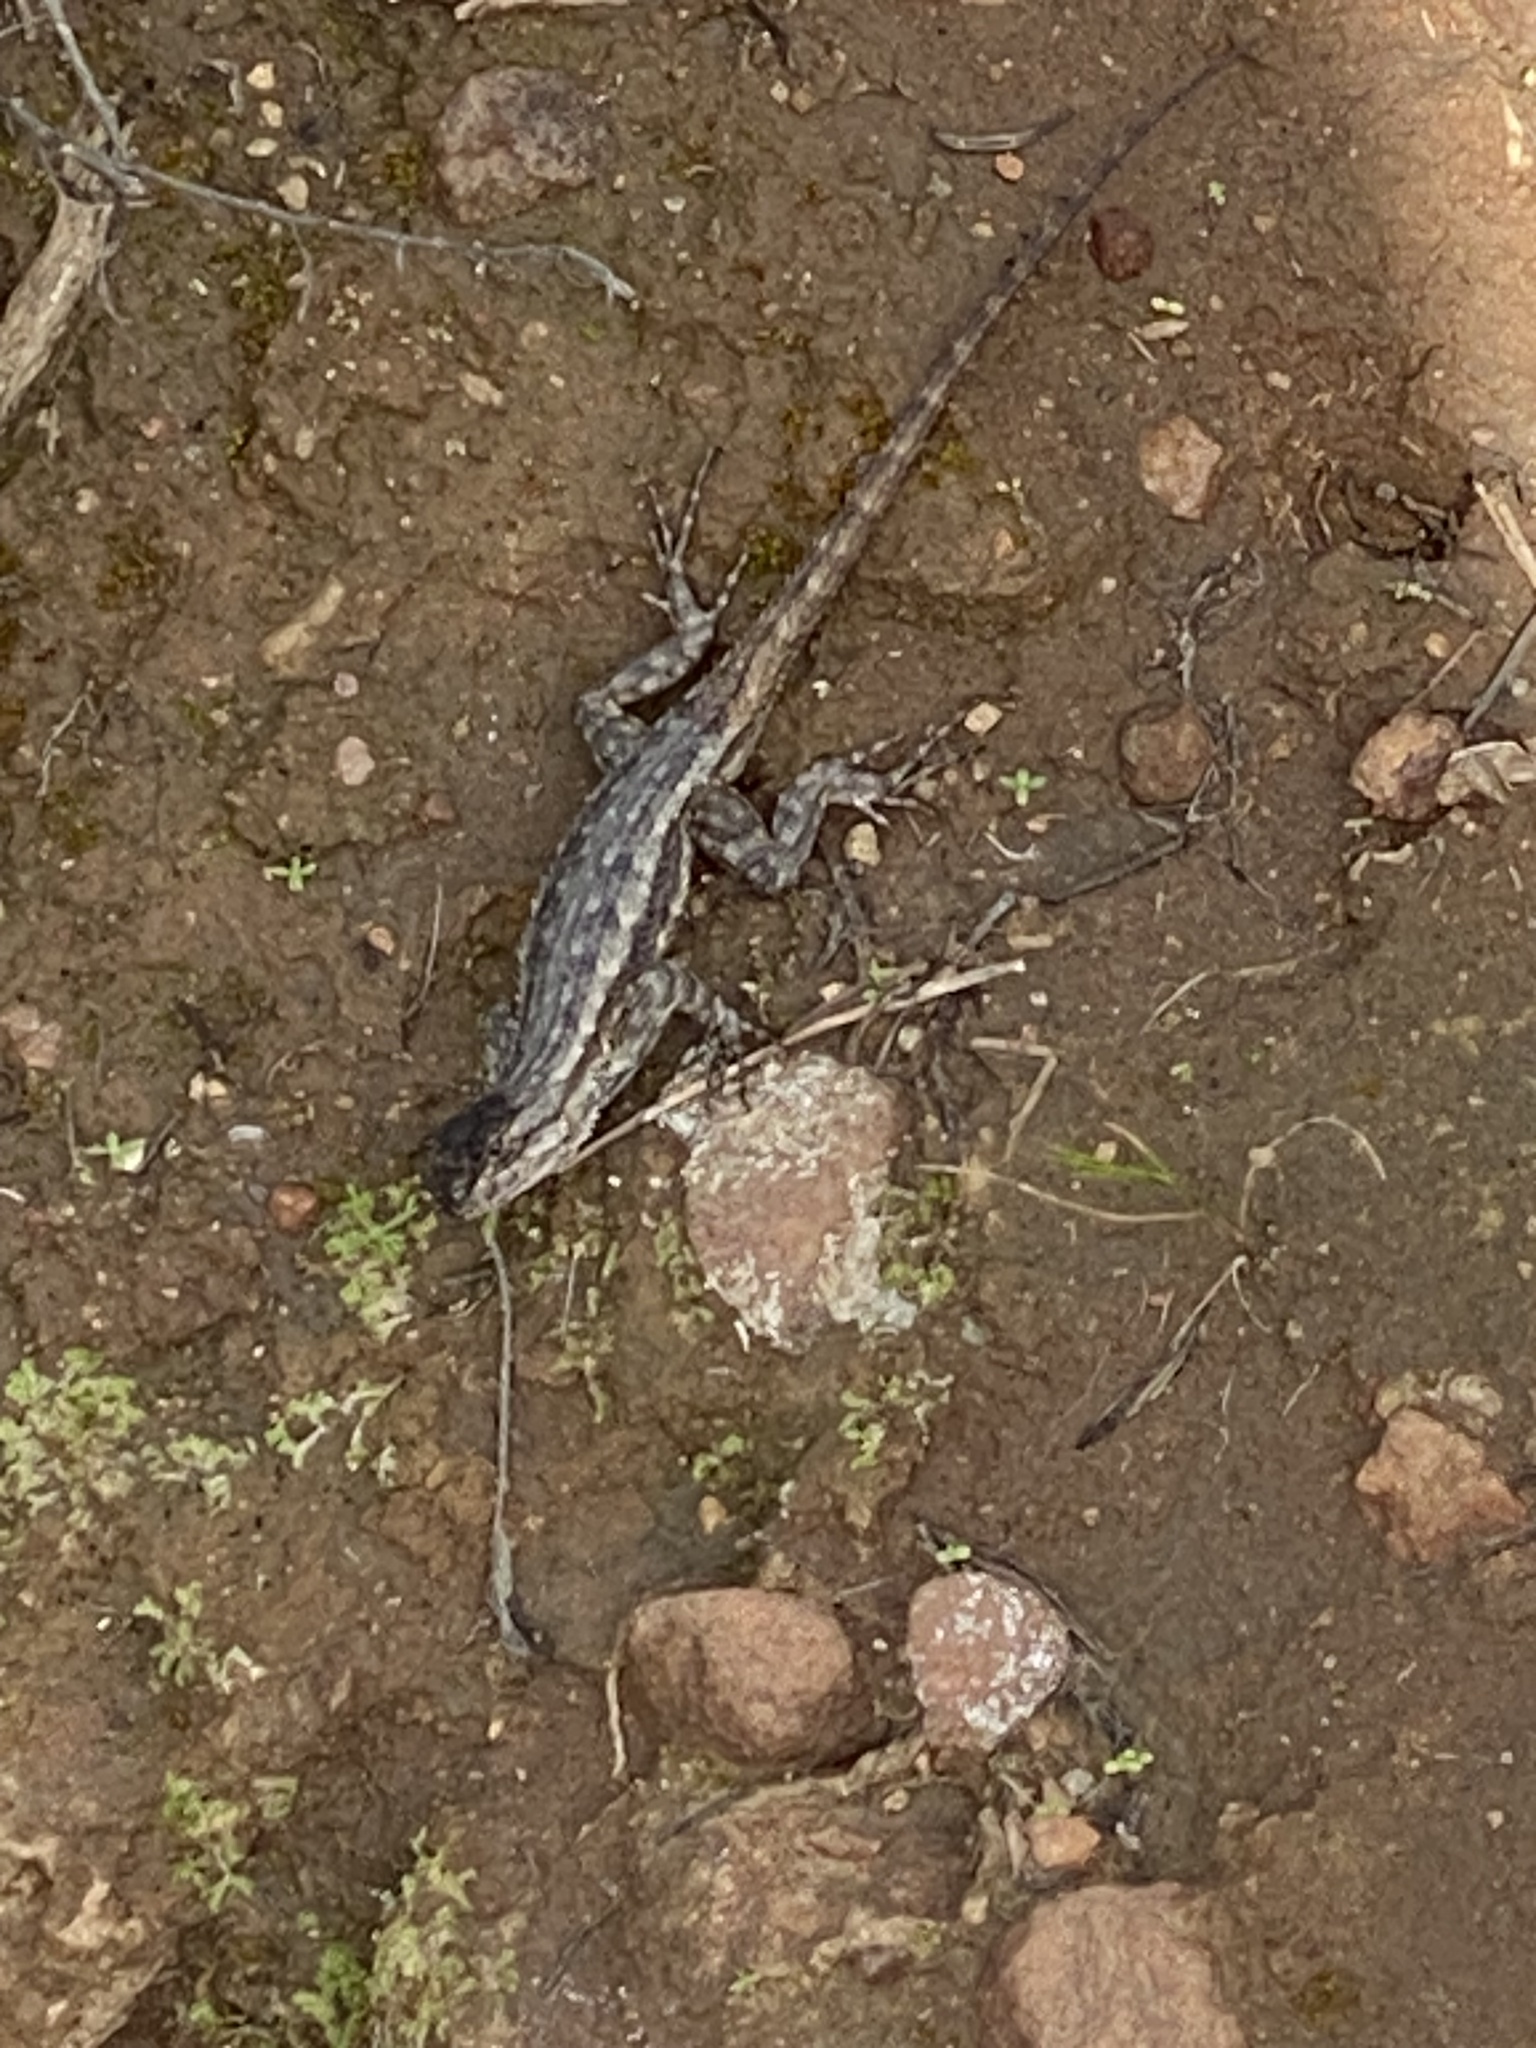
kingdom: Animalia
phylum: Chordata
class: Squamata
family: Phrynosomatidae
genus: Sceloporus
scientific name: Sceloporus occidentalis
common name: Western fence lizard
